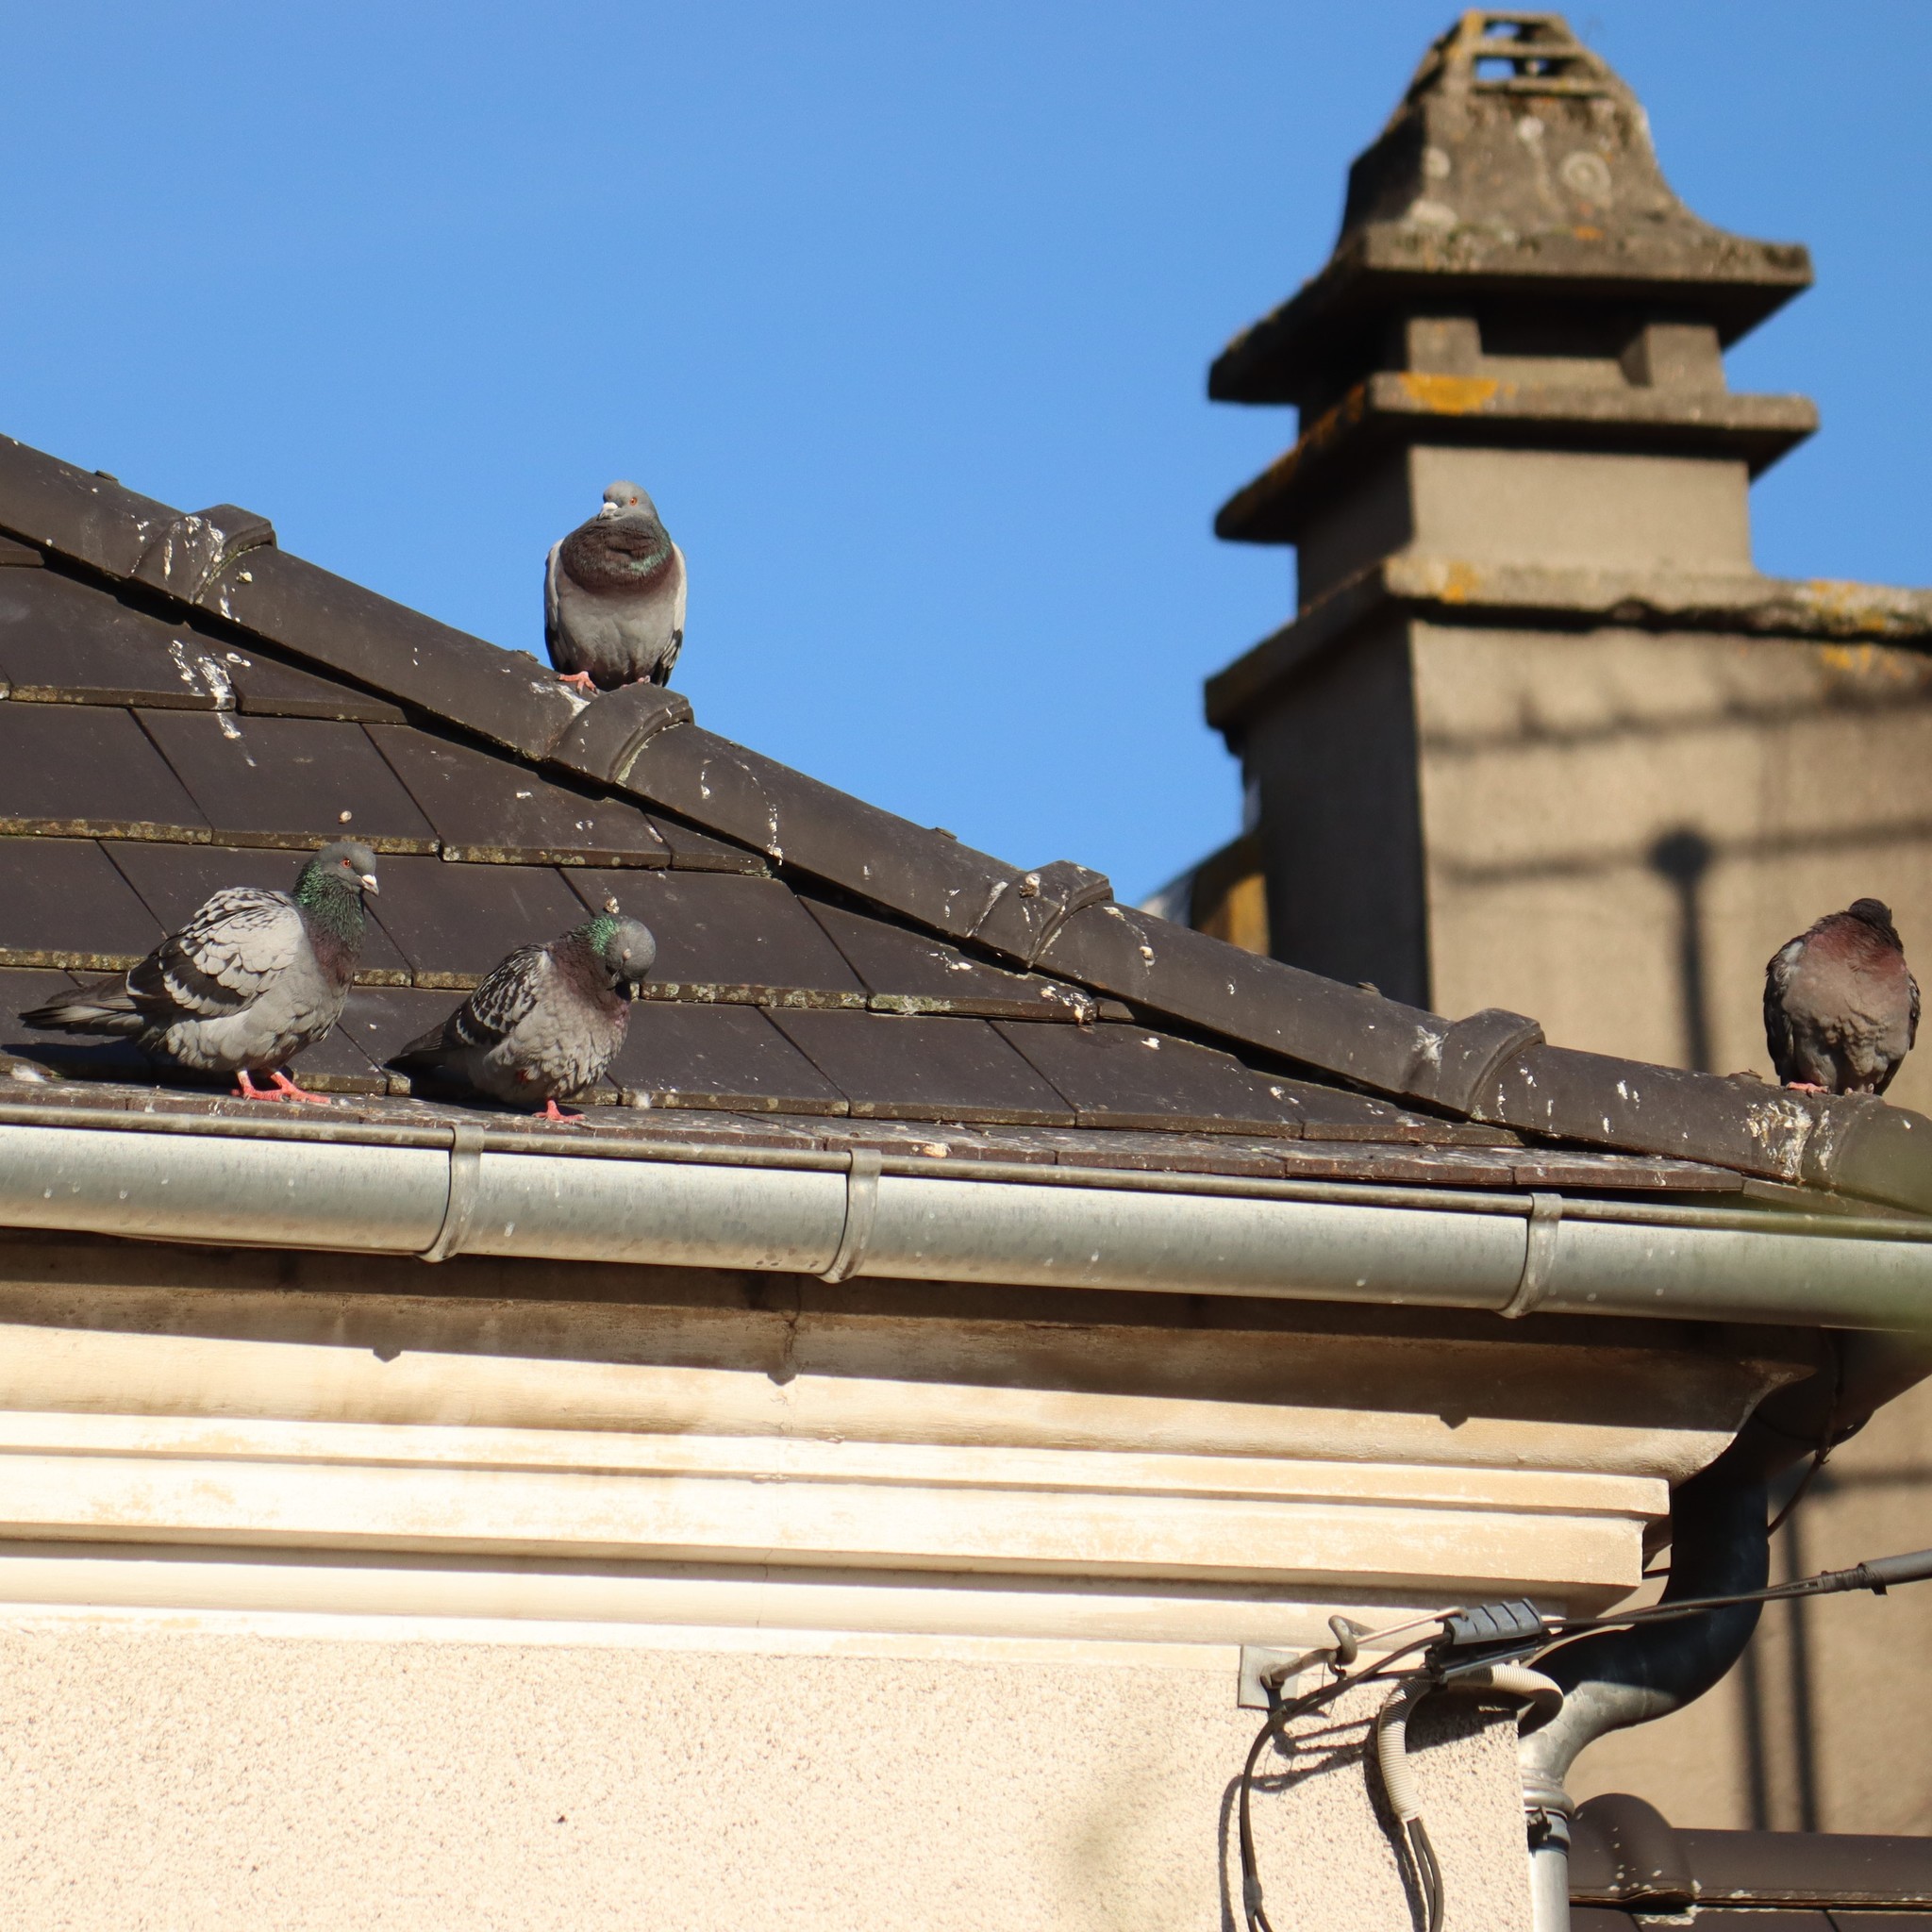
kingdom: Animalia
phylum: Chordata
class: Aves
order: Columbiformes
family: Columbidae
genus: Columba
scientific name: Columba livia
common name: Rock pigeon
